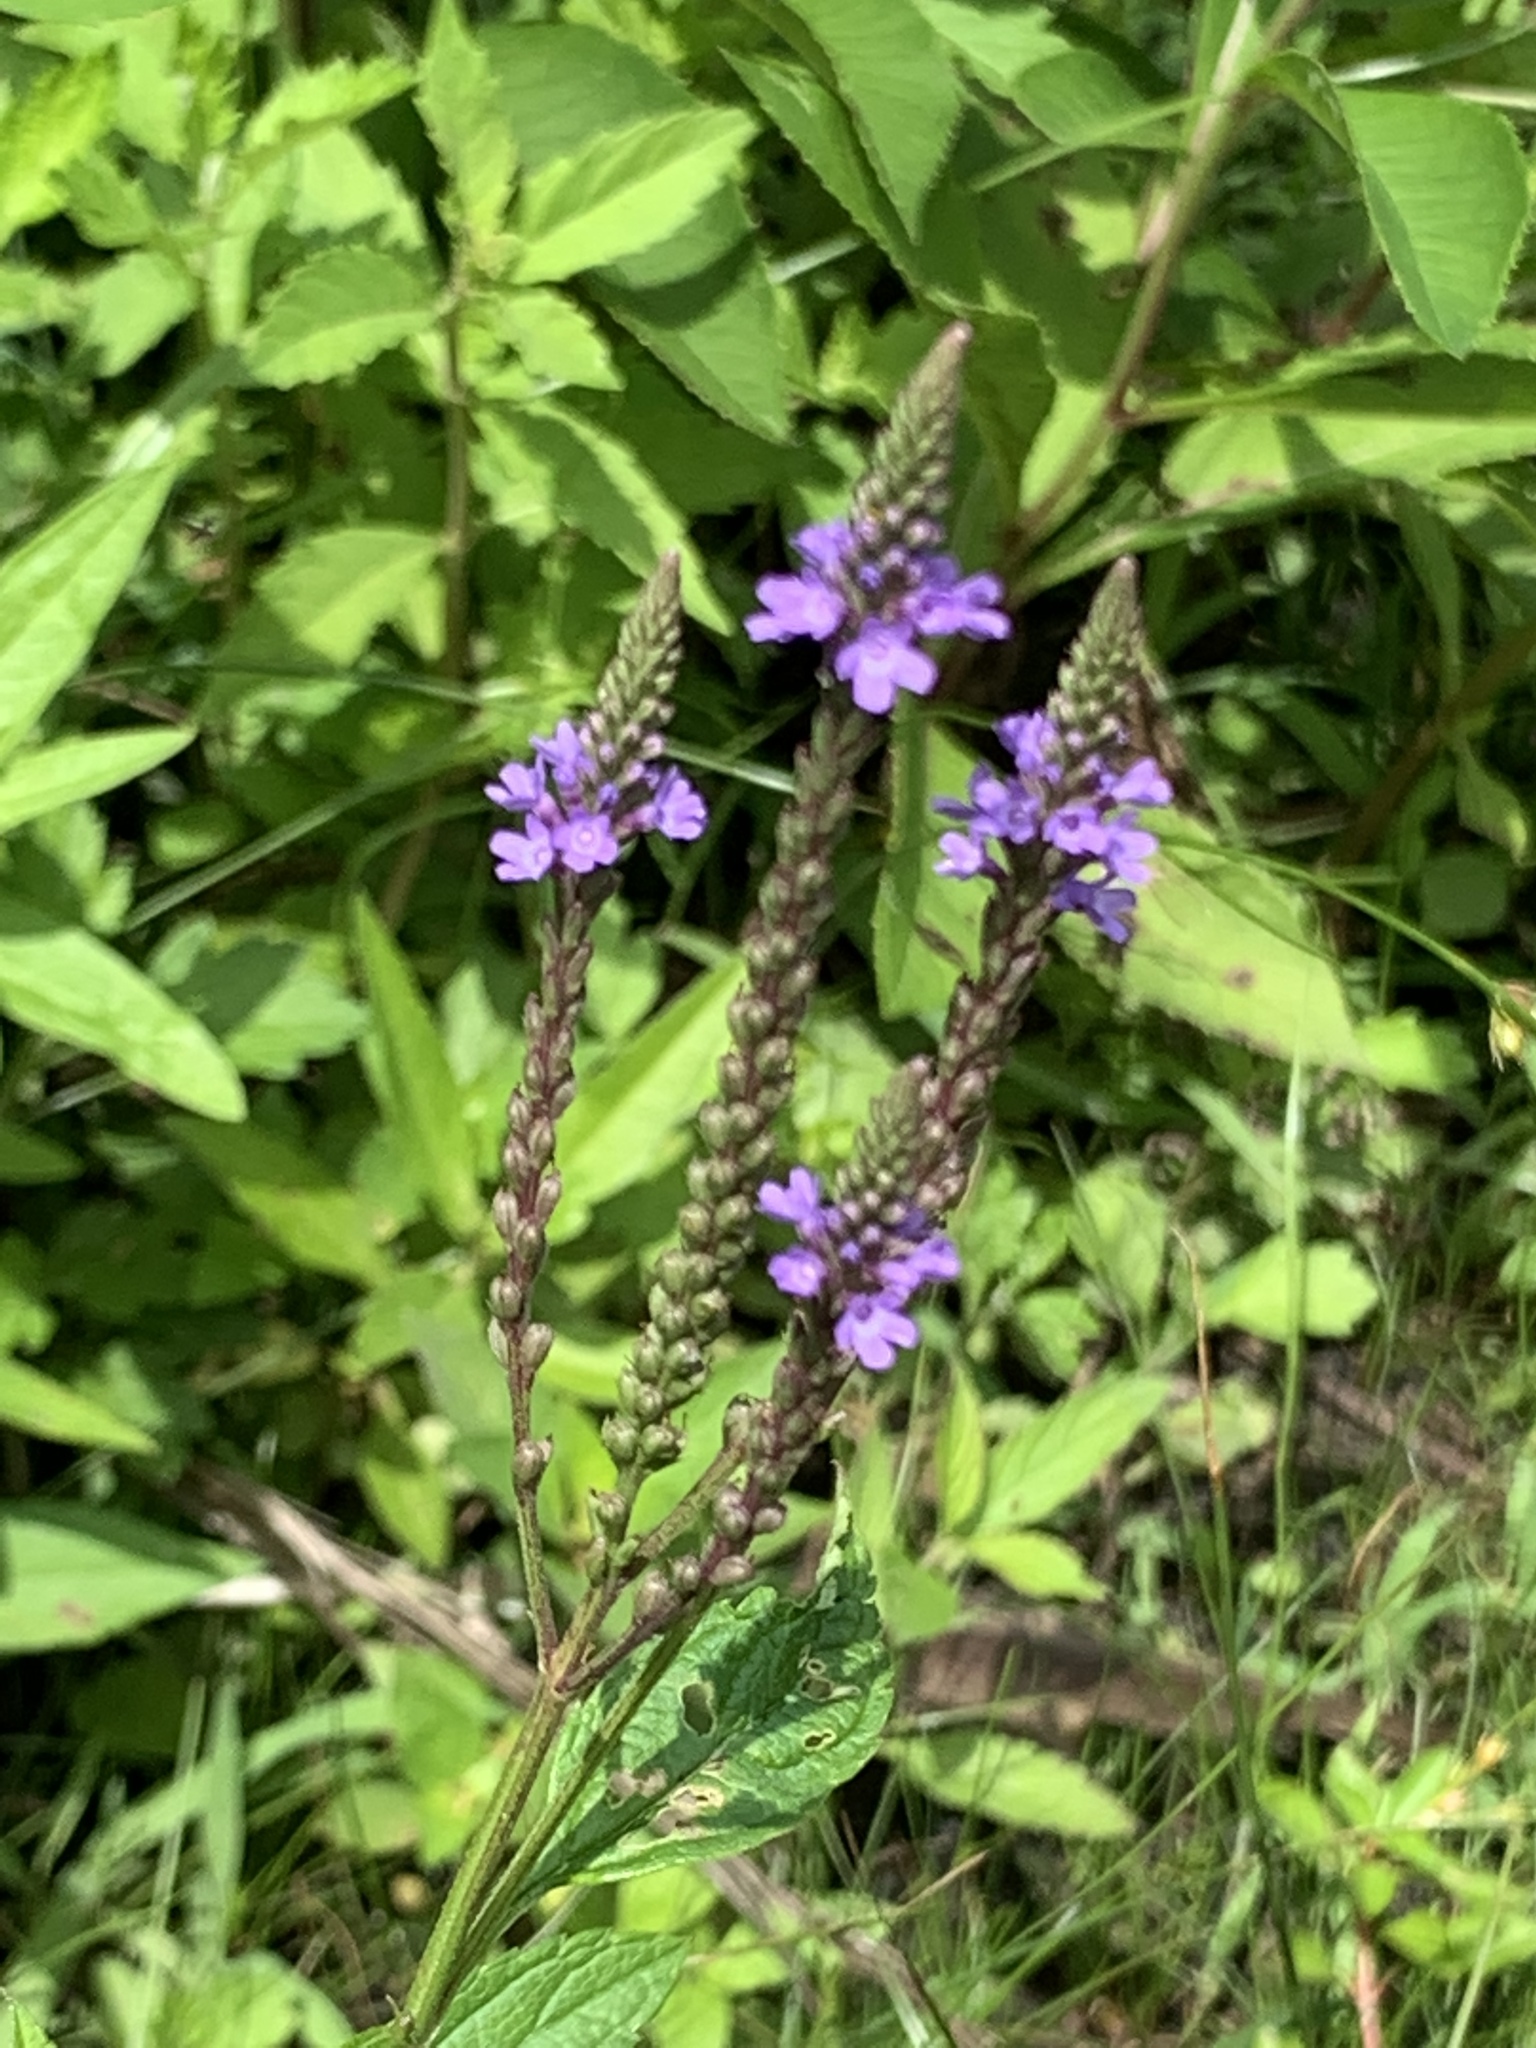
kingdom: Plantae
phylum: Tracheophyta
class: Magnoliopsida
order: Lamiales
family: Verbenaceae
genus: Verbena
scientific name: Verbena hastata
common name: American blue vervain
